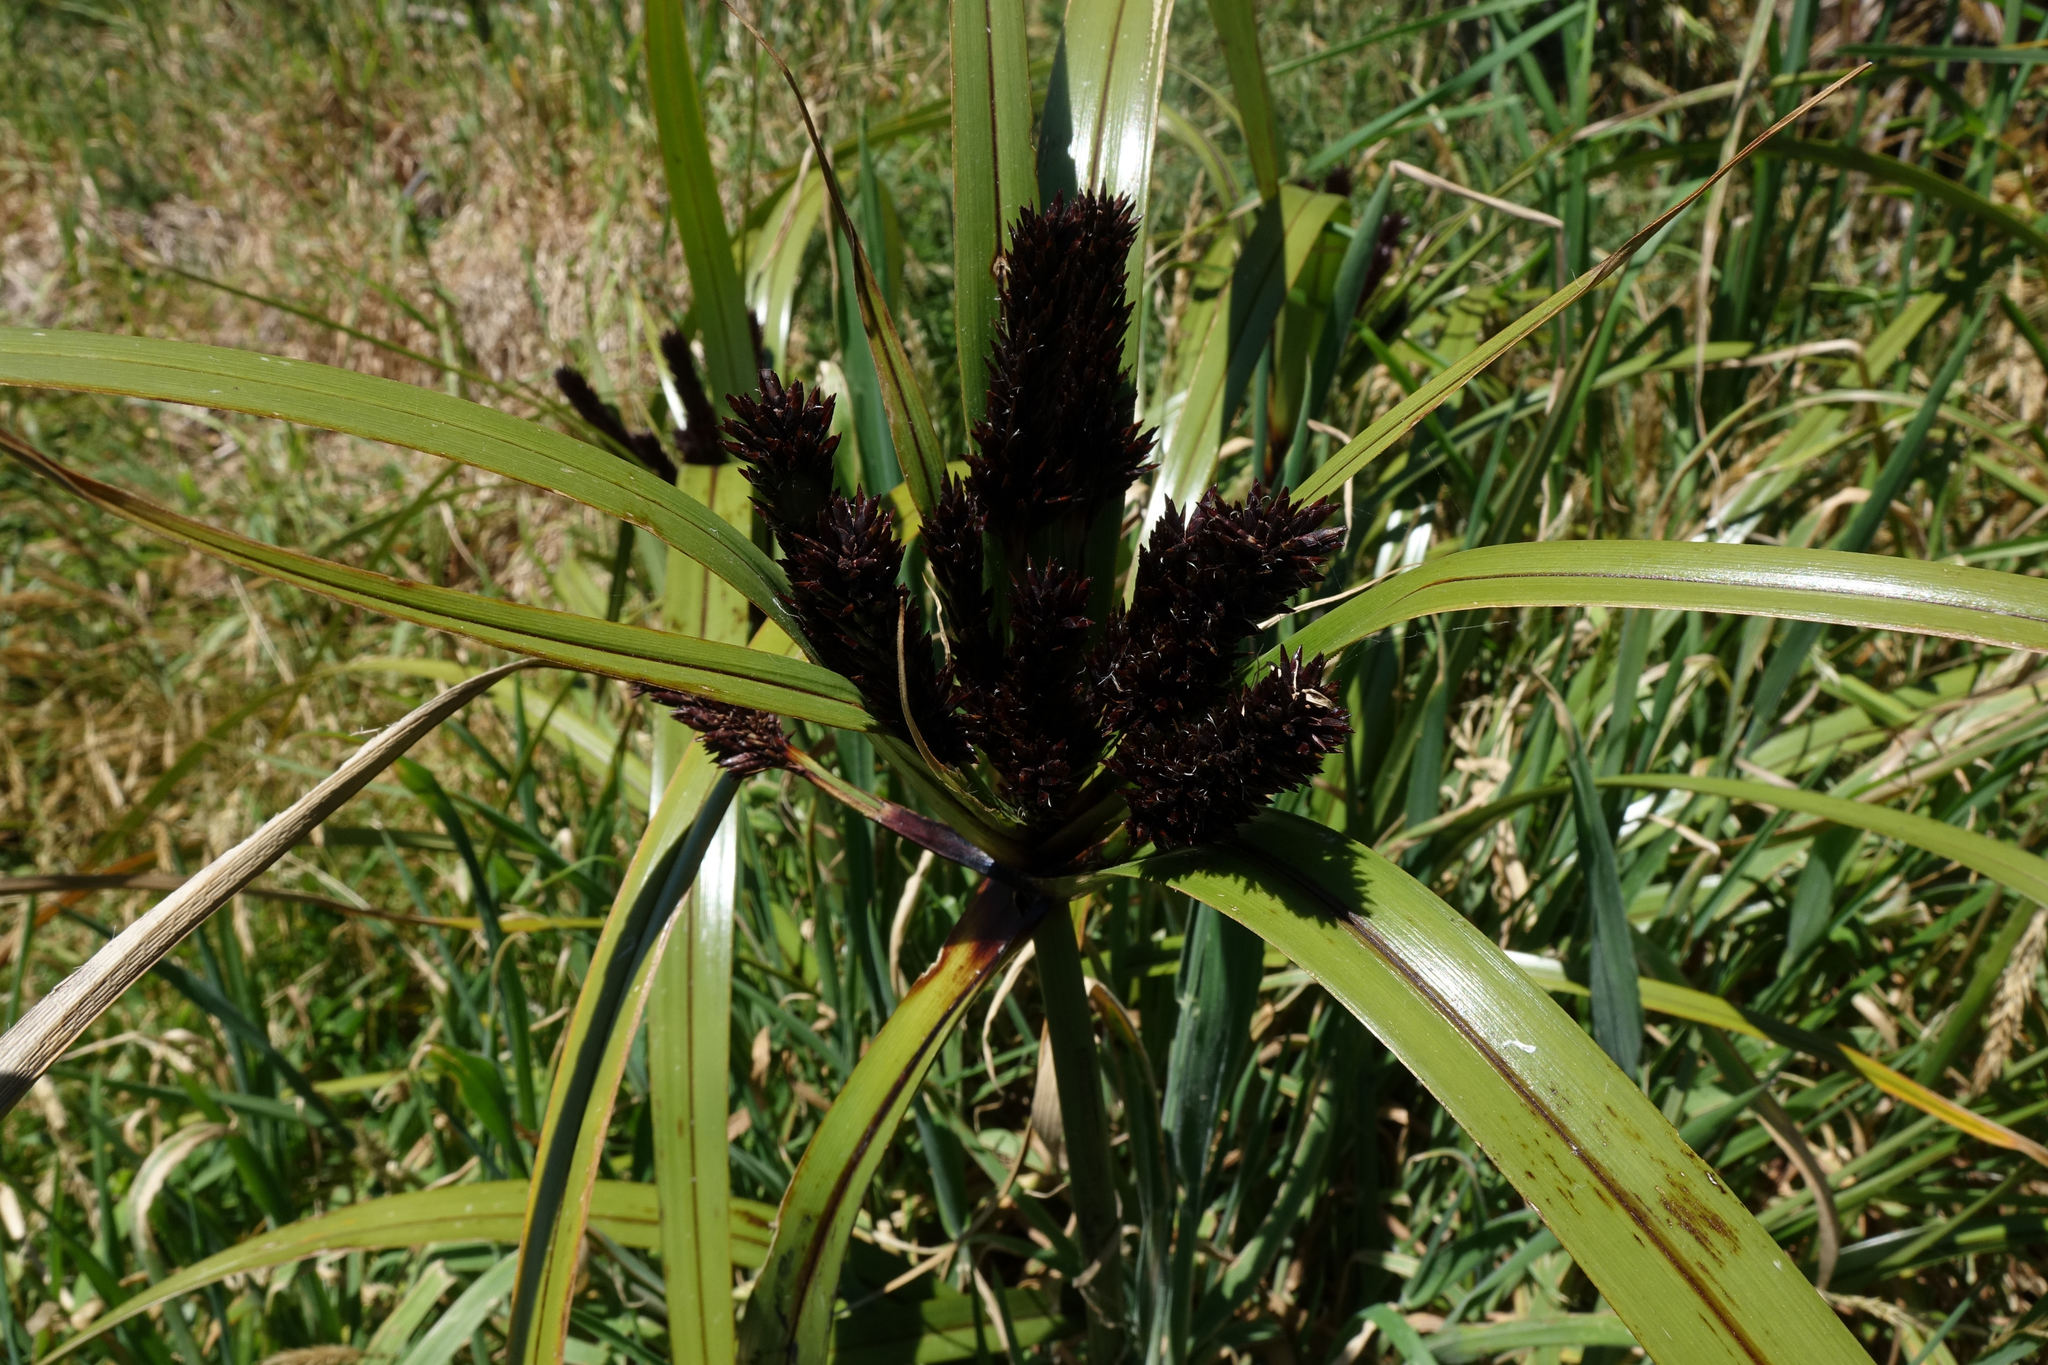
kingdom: Plantae
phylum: Tracheophyta
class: Liliopsida
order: Poales
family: Cyperaceae
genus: Cyperus
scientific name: Cyperus ustulatus
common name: Giant umbrella-sedge
